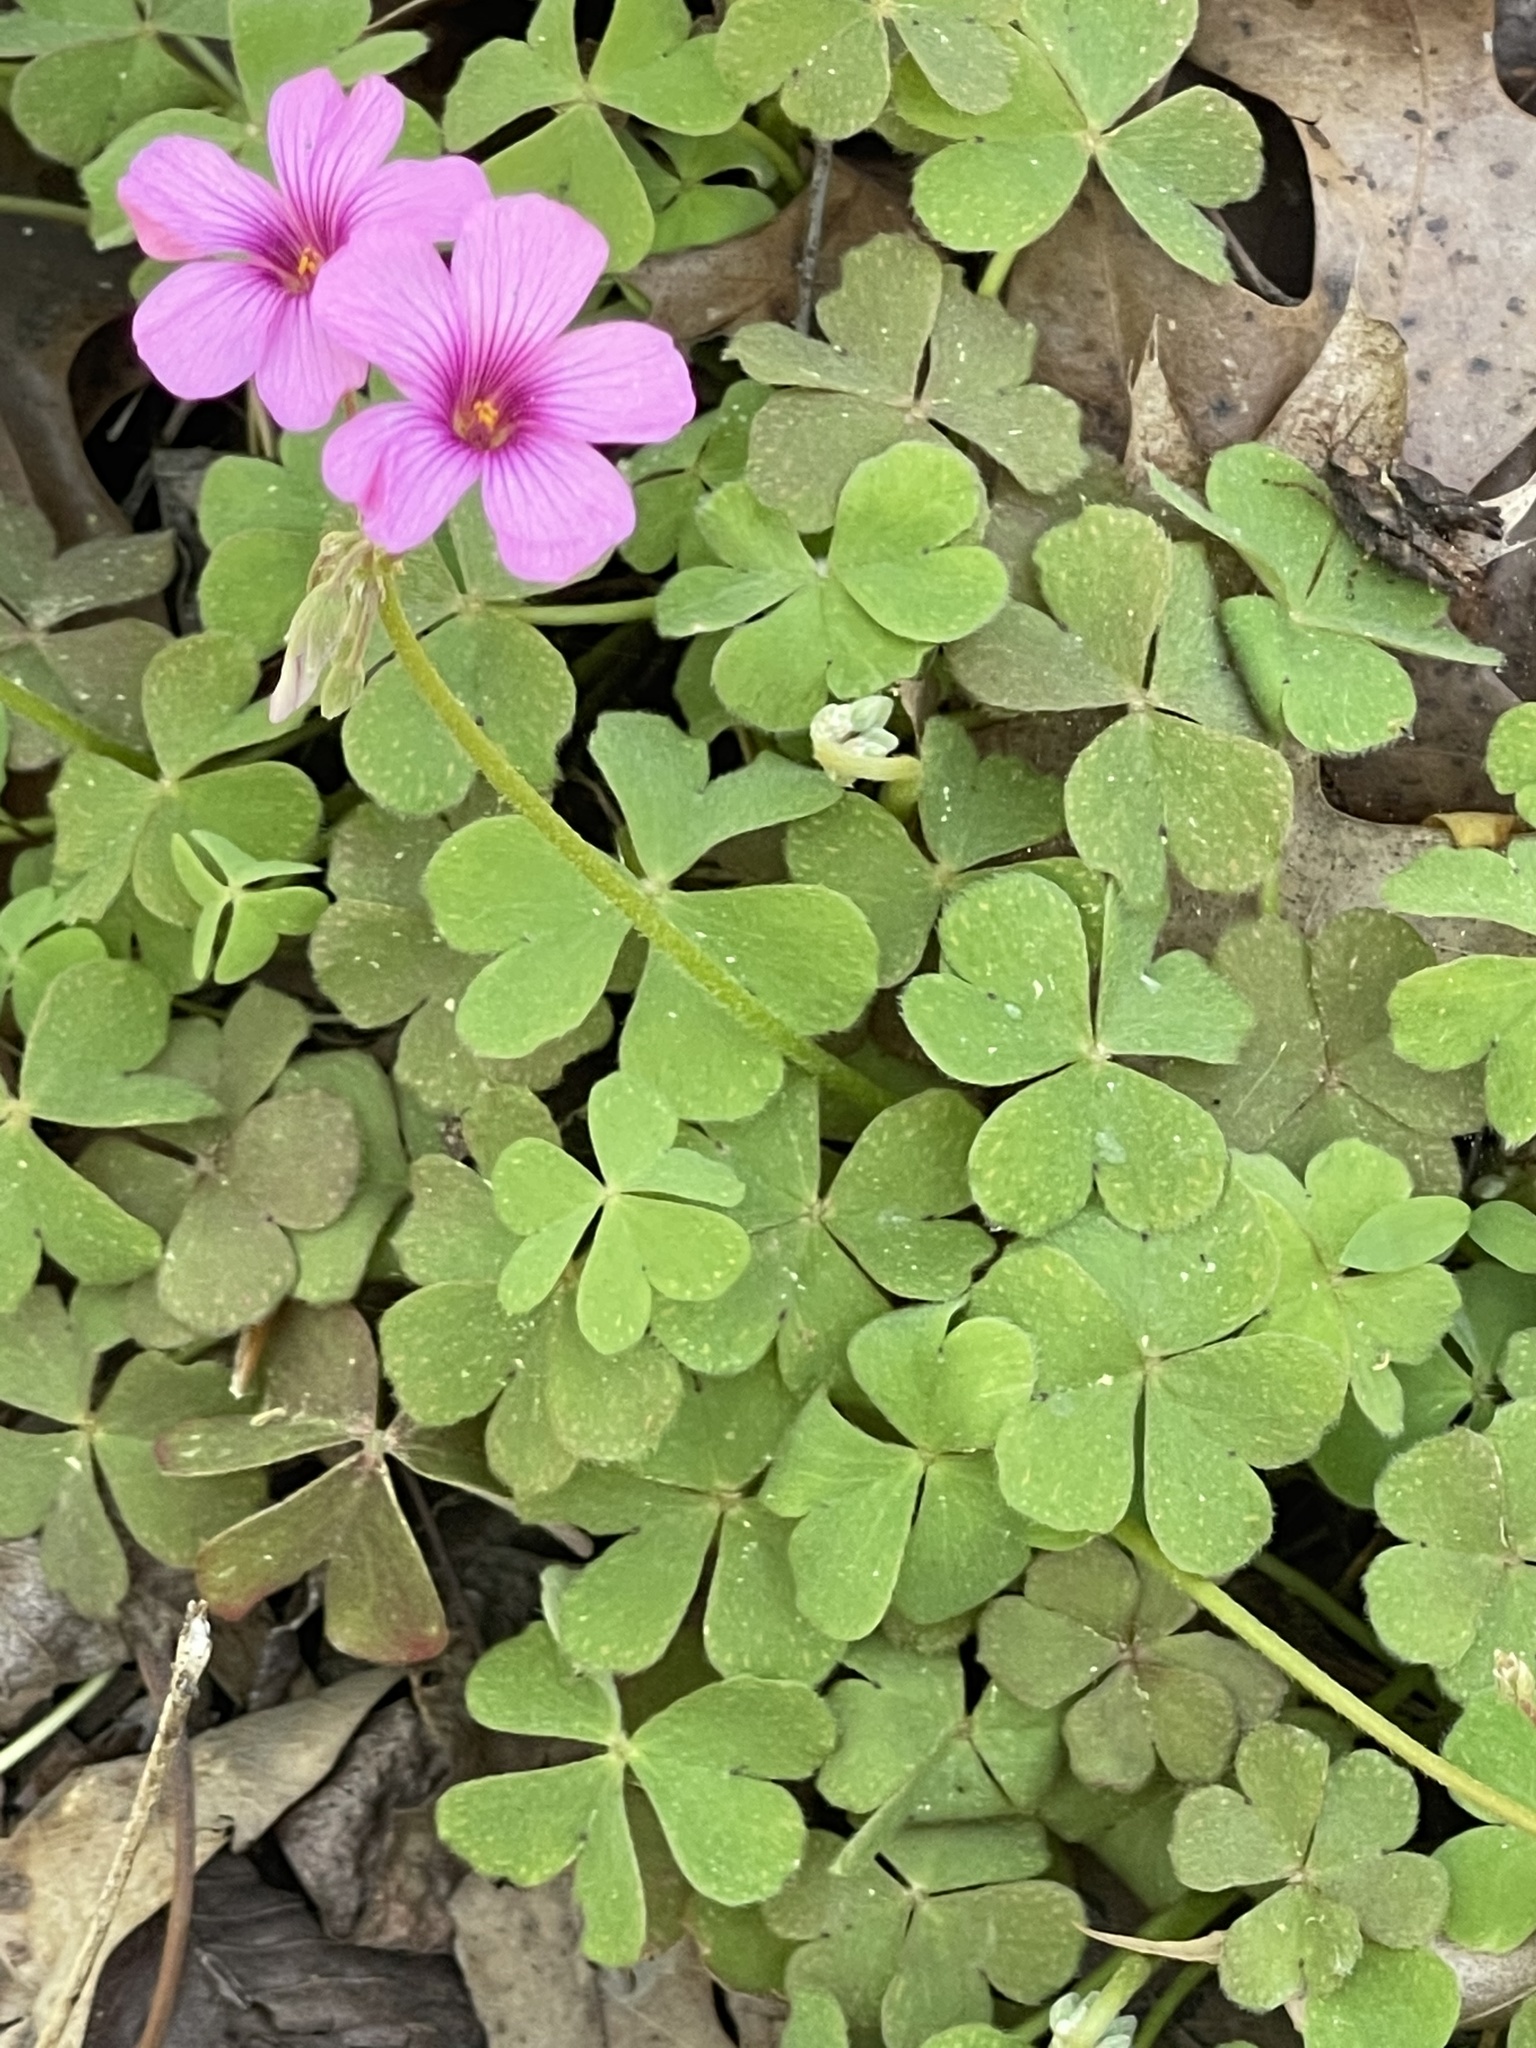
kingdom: Plantae
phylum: Tracheophyta
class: Magnoliopsida
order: Oxalidales
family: Oxalidaceae
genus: Oxalis
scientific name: Oxalis articulata
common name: Pink-sorrel
